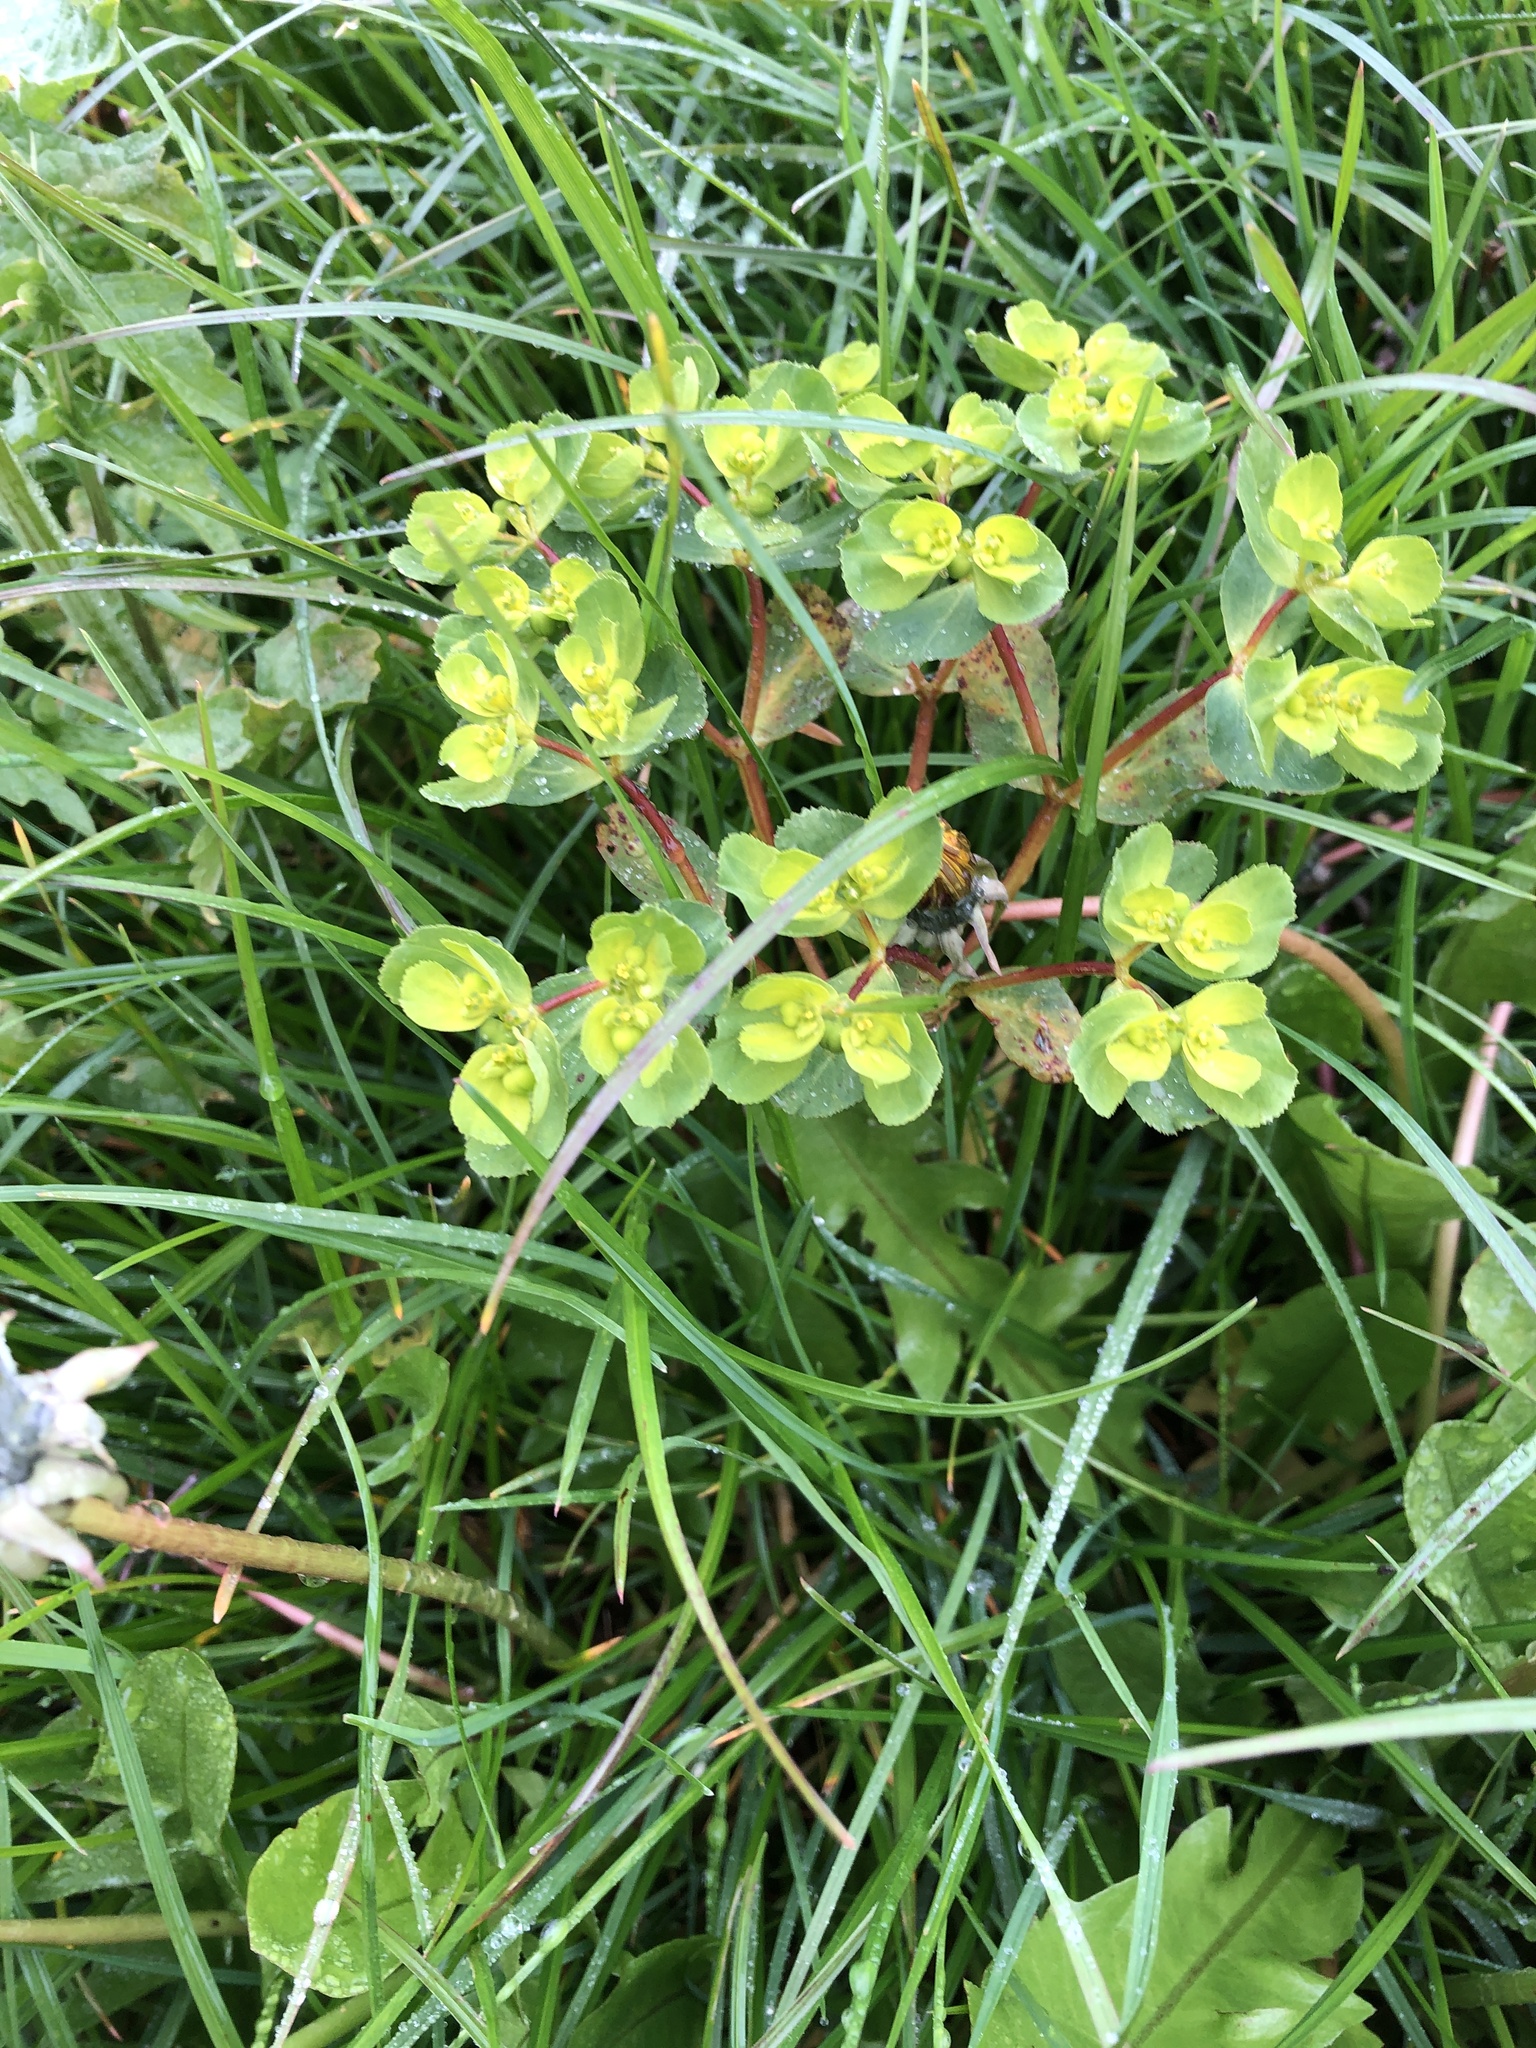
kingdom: Plantae
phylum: Tracheophyta
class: Magnoliopsida
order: Malpighiales
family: Euphorbiaceae
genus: Euphorbia
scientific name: Euphorbia helioscopia
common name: Sun spurge
